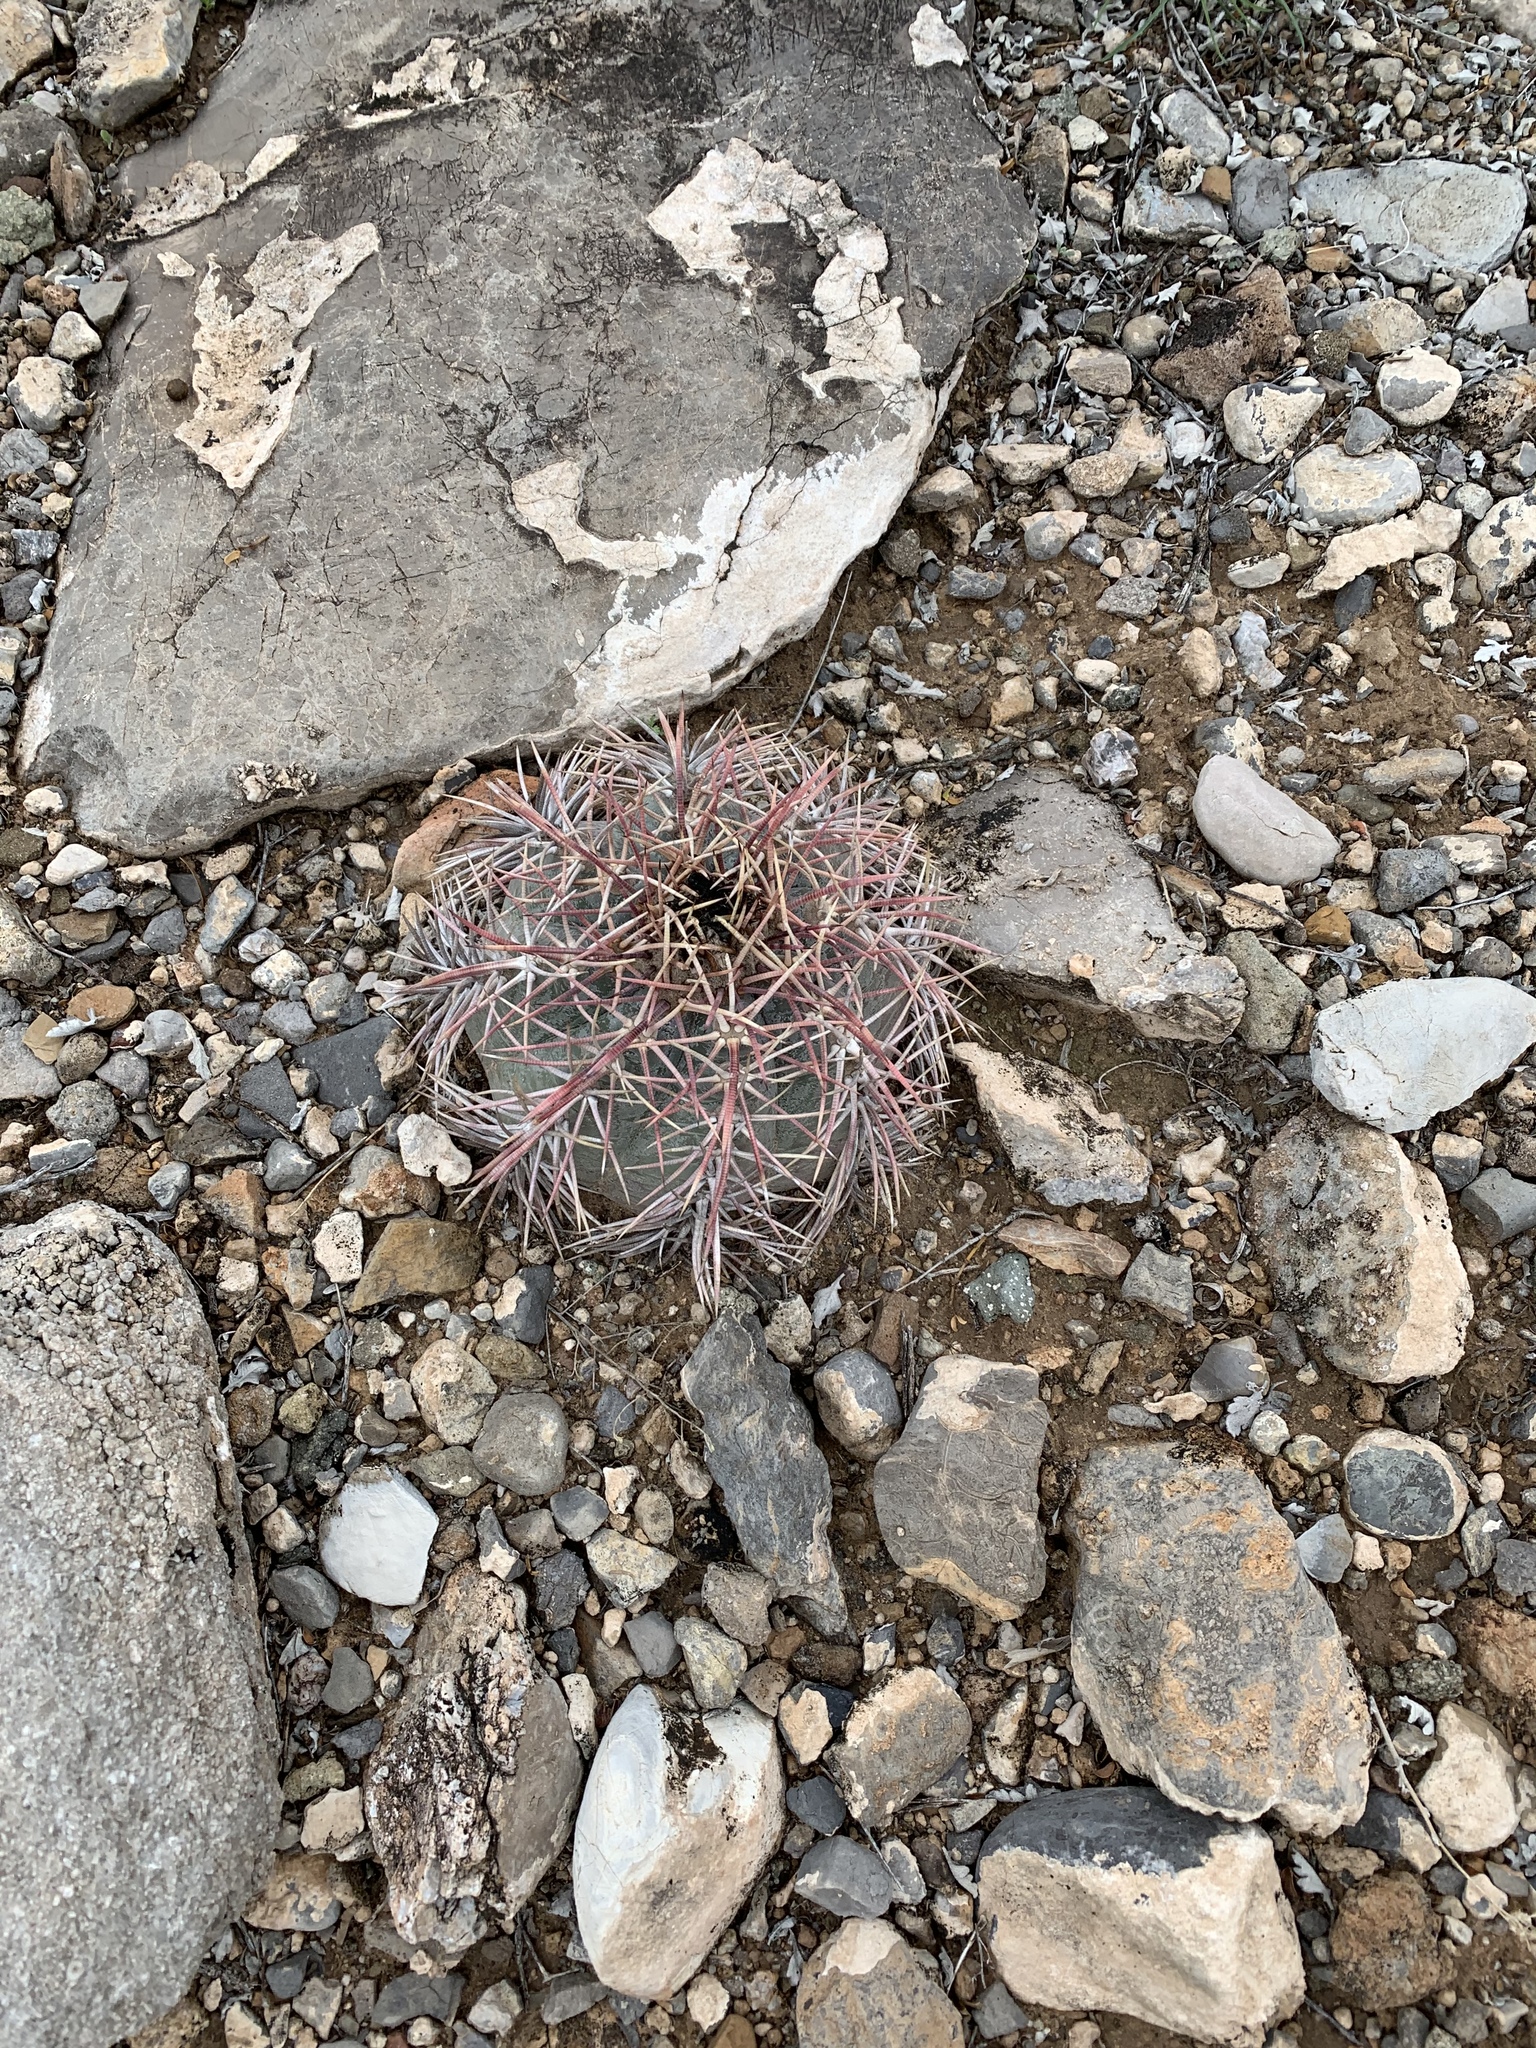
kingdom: Plantae
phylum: Tracheophyta
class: Magnoliopsida
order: Caryophyllales
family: Cactaceae
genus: Echinocactus
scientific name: Echinocactus horizonthalonius
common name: Devilshead
